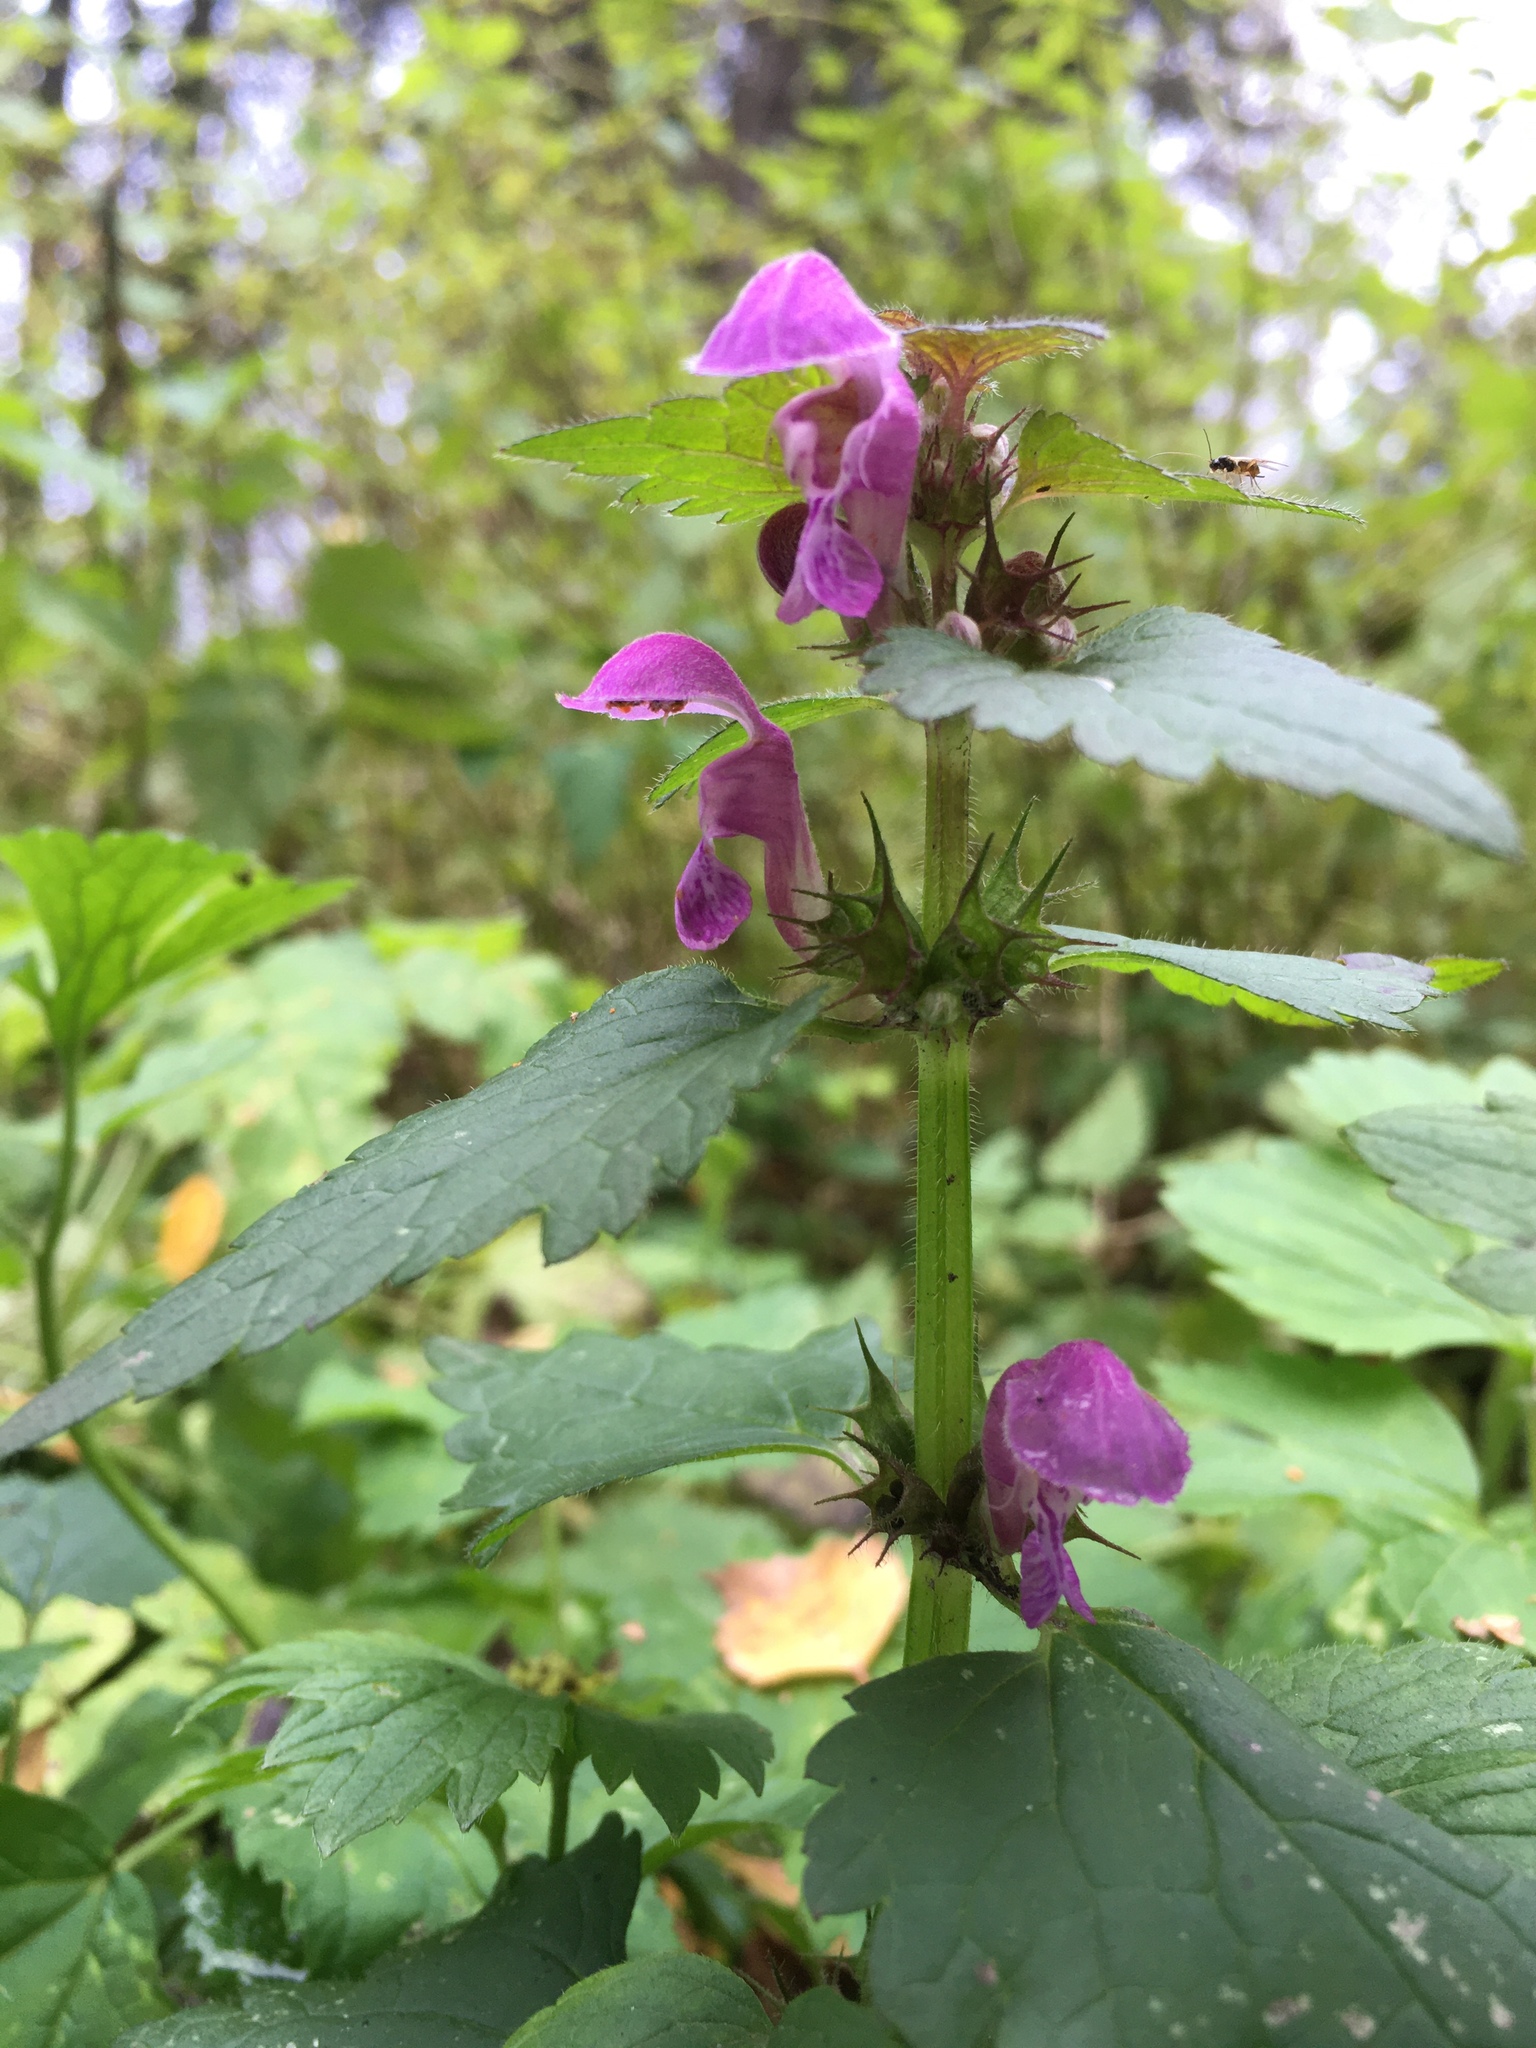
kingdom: Plantae
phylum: Tracheophyta
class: Magnoliopsida
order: Lamiales
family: Lamiaceae
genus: Lamium
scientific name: Lamium maculatum
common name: Spotted dead-nettle
